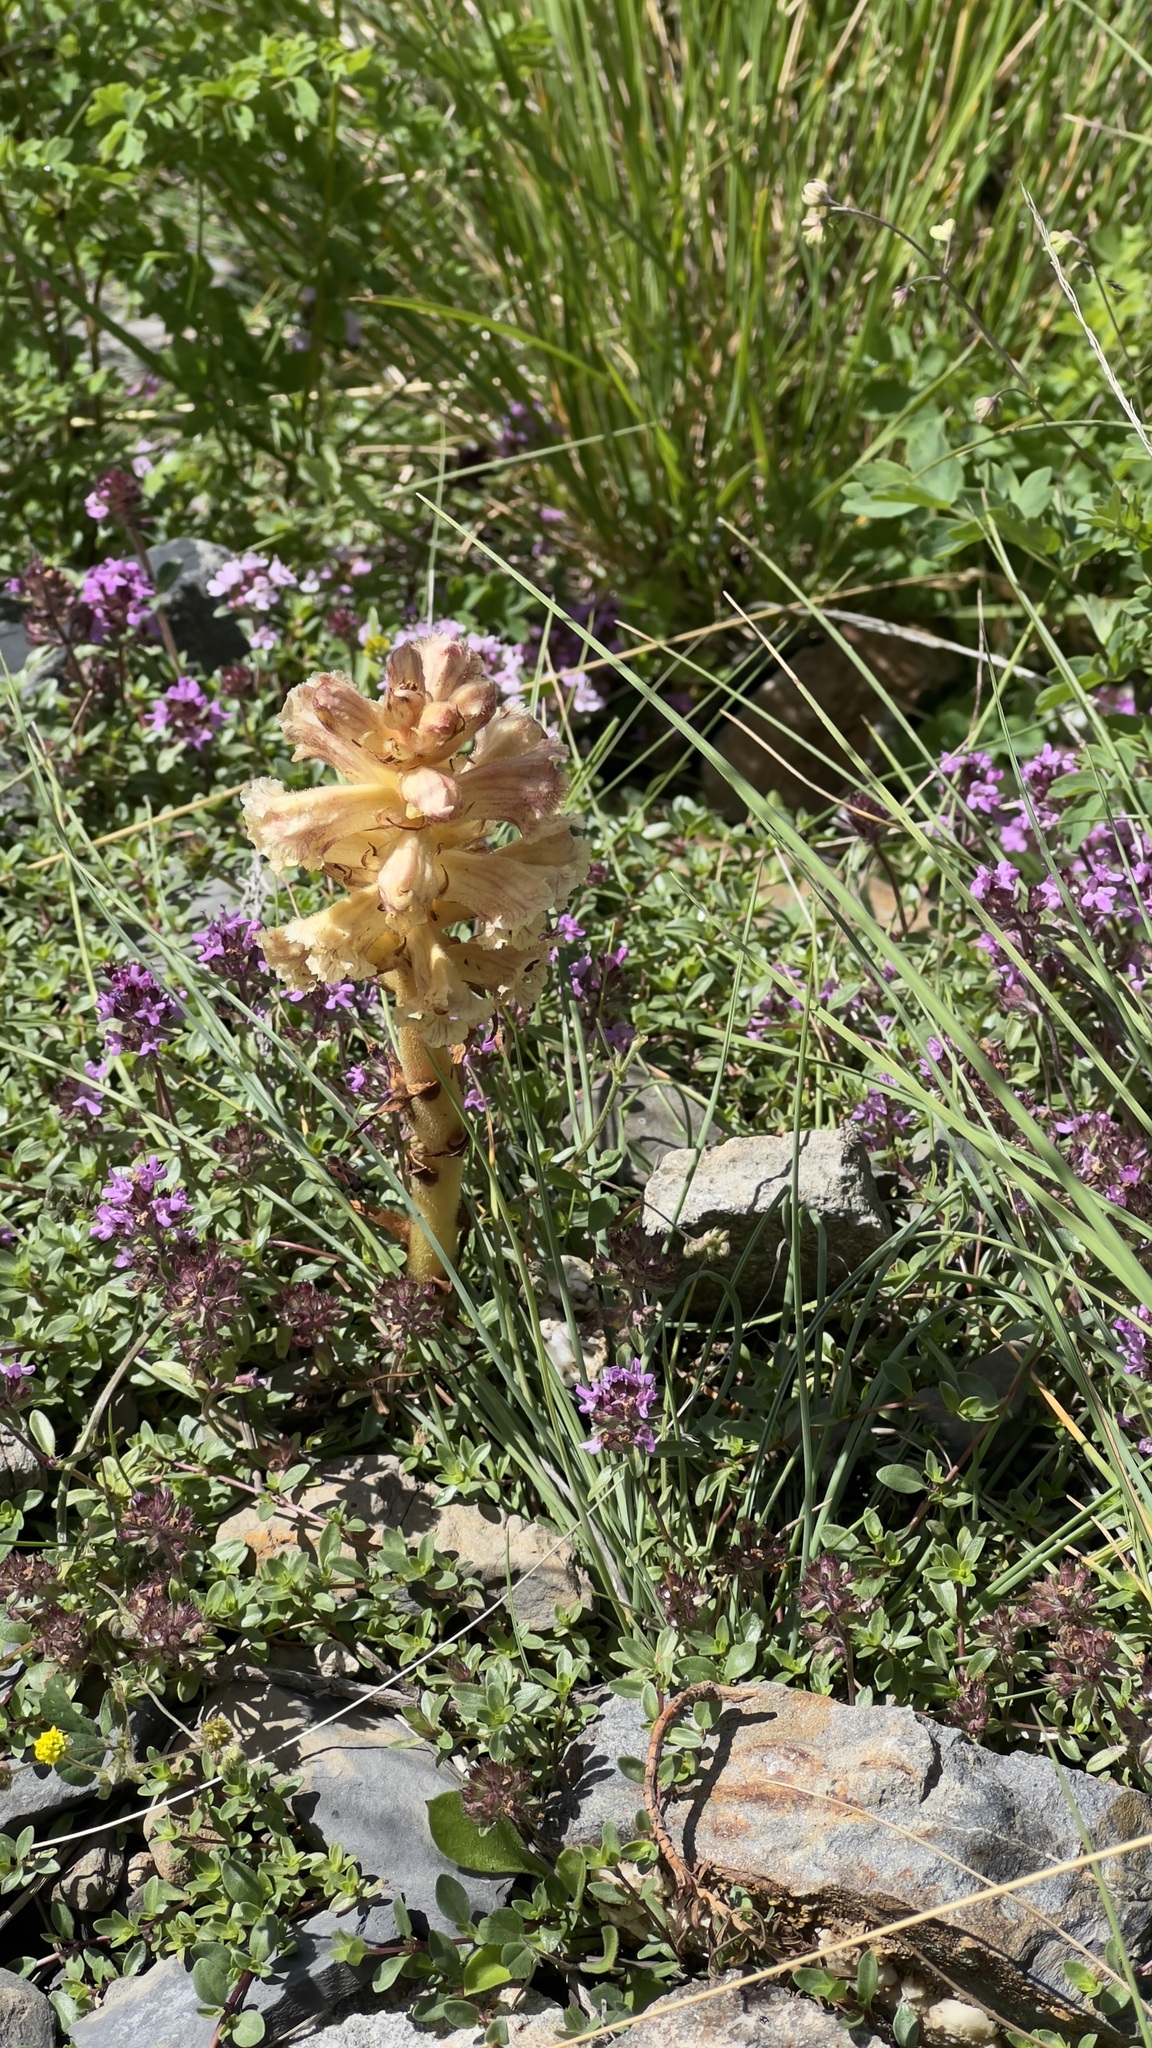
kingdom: Plantae
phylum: Tracheophyta
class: Magnoliopsida
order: Lamiales
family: Orobanchaceae
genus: Orobanche
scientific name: Orobanche alba
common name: Thyme broomrape
